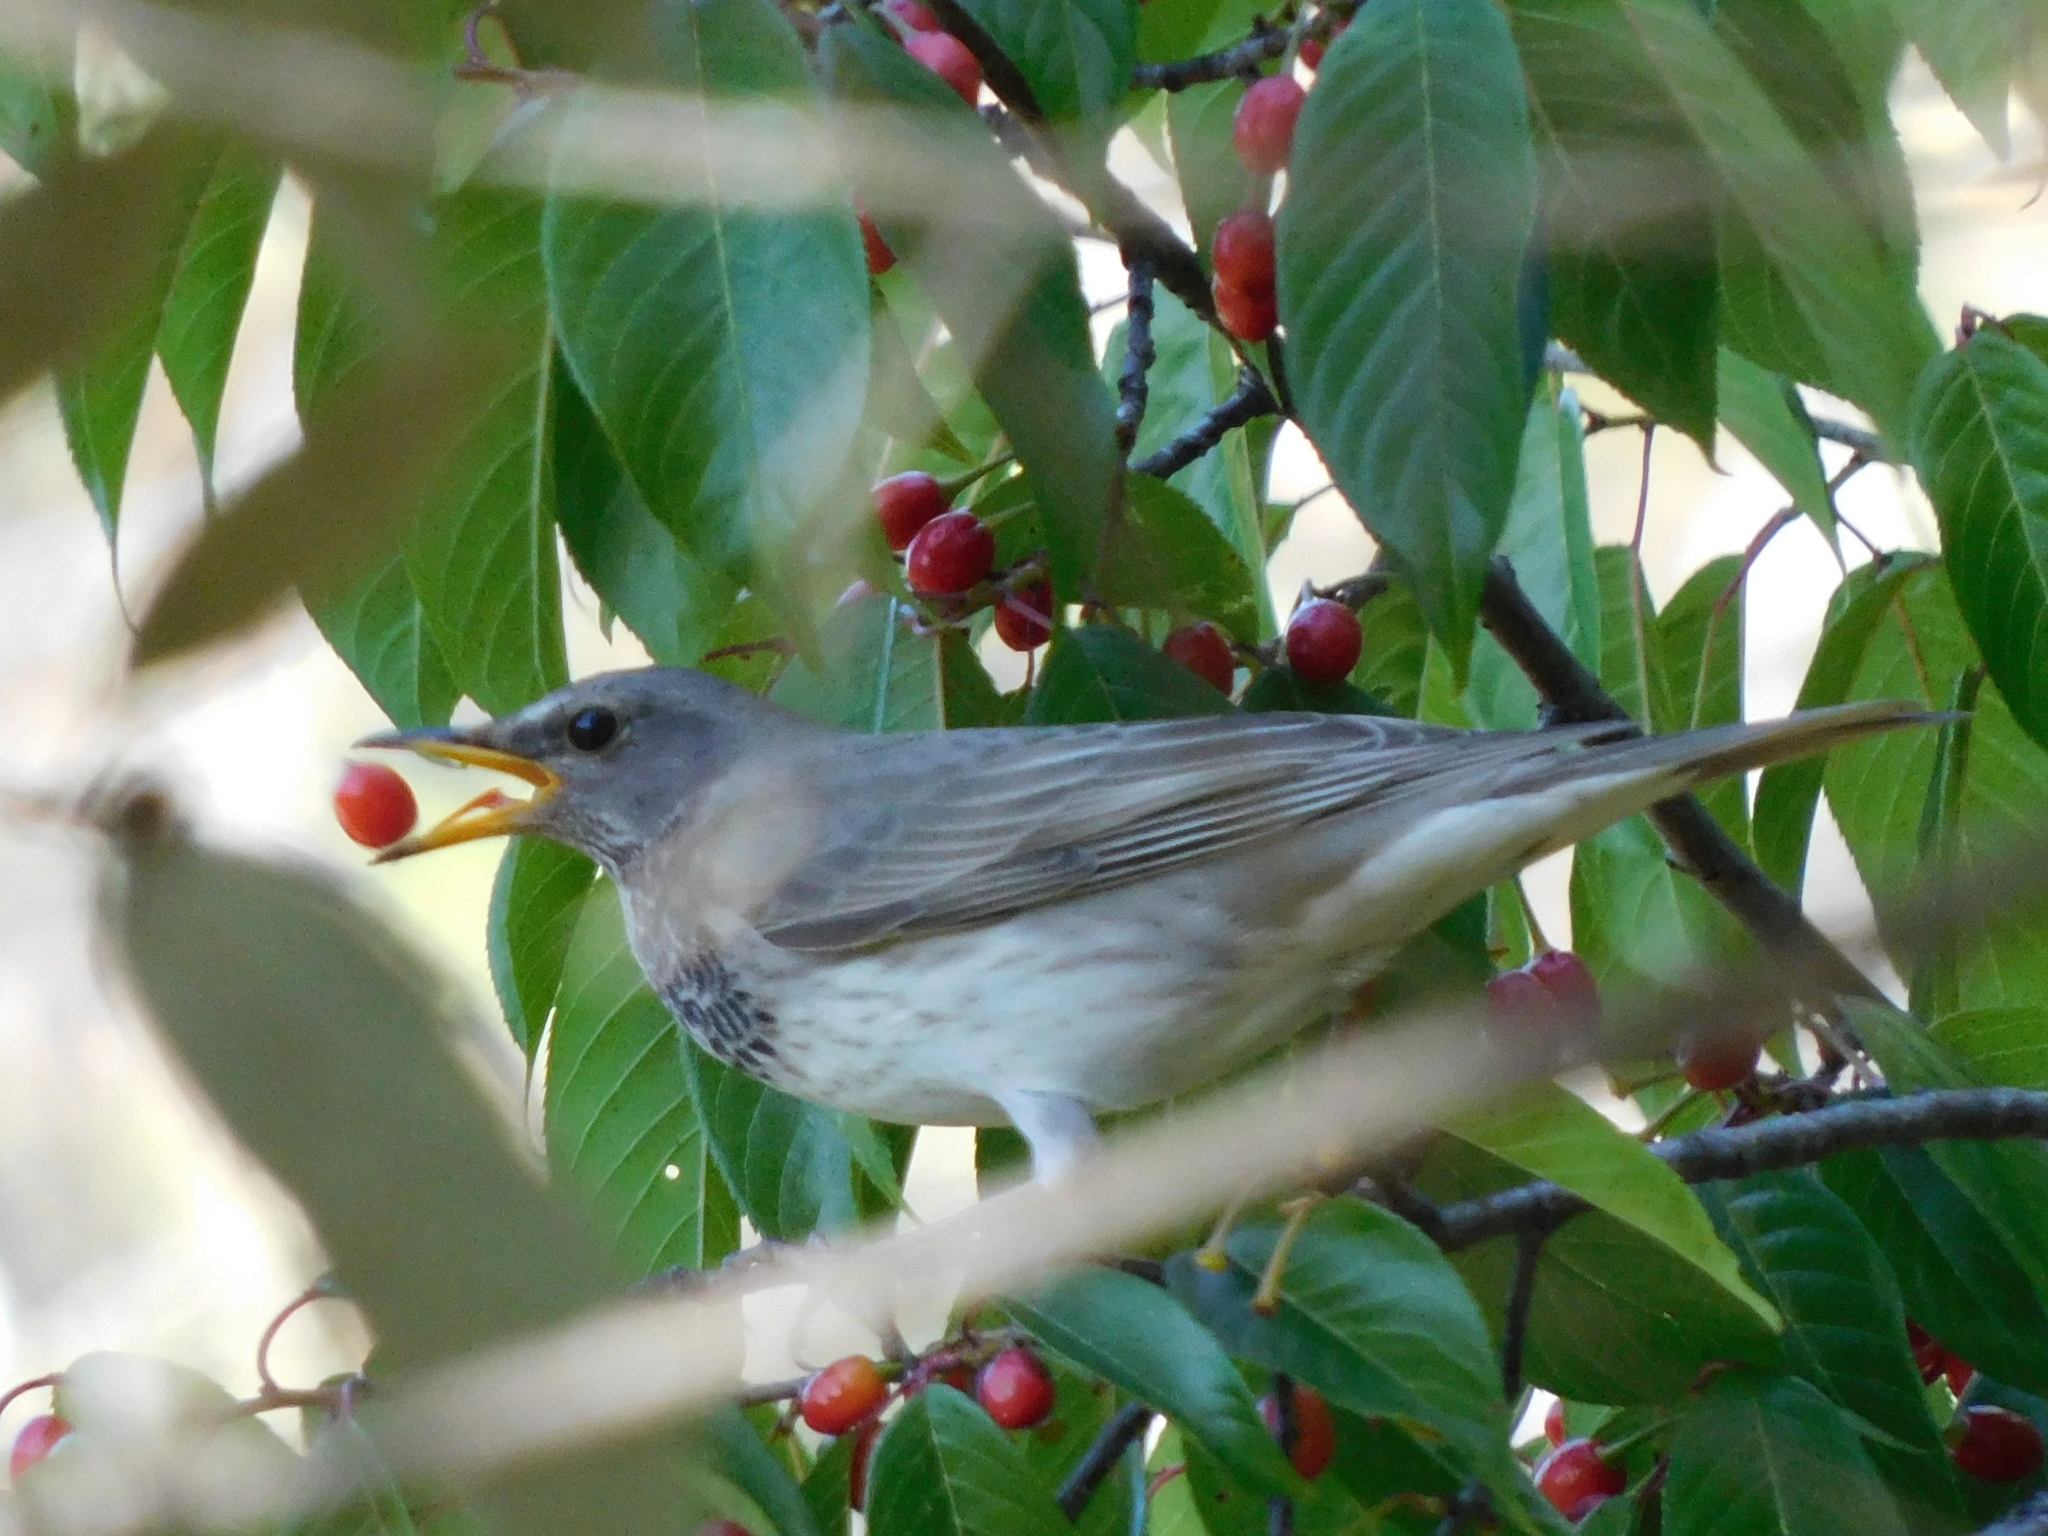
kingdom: Animalia
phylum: Chordata
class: Aves
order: Passeriformes
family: Turdidae
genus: Turdus
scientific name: Turdus atrogularis
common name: Black-throated thrush
